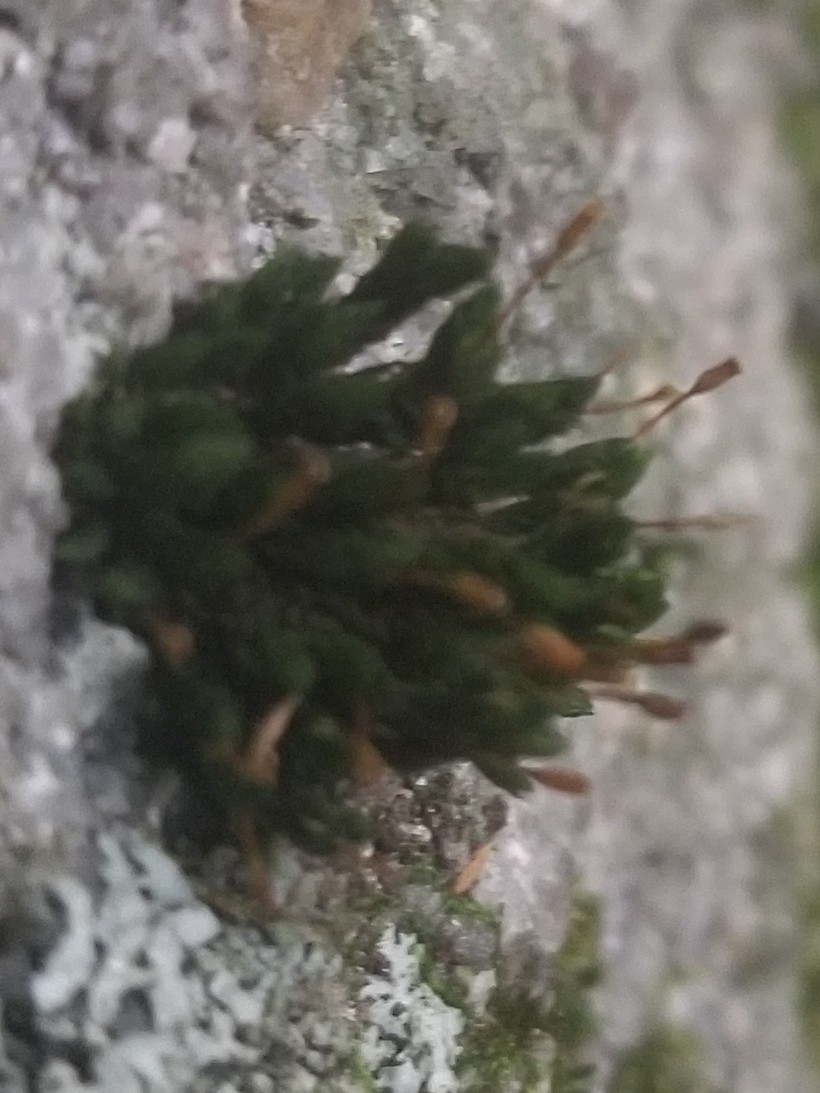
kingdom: Plantae
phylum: Bryophyta
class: Bryopsida
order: Orthotrichales
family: Orthotrichaceae
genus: Ulota
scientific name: Ulota crispa
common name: Crisped pincushion moss
